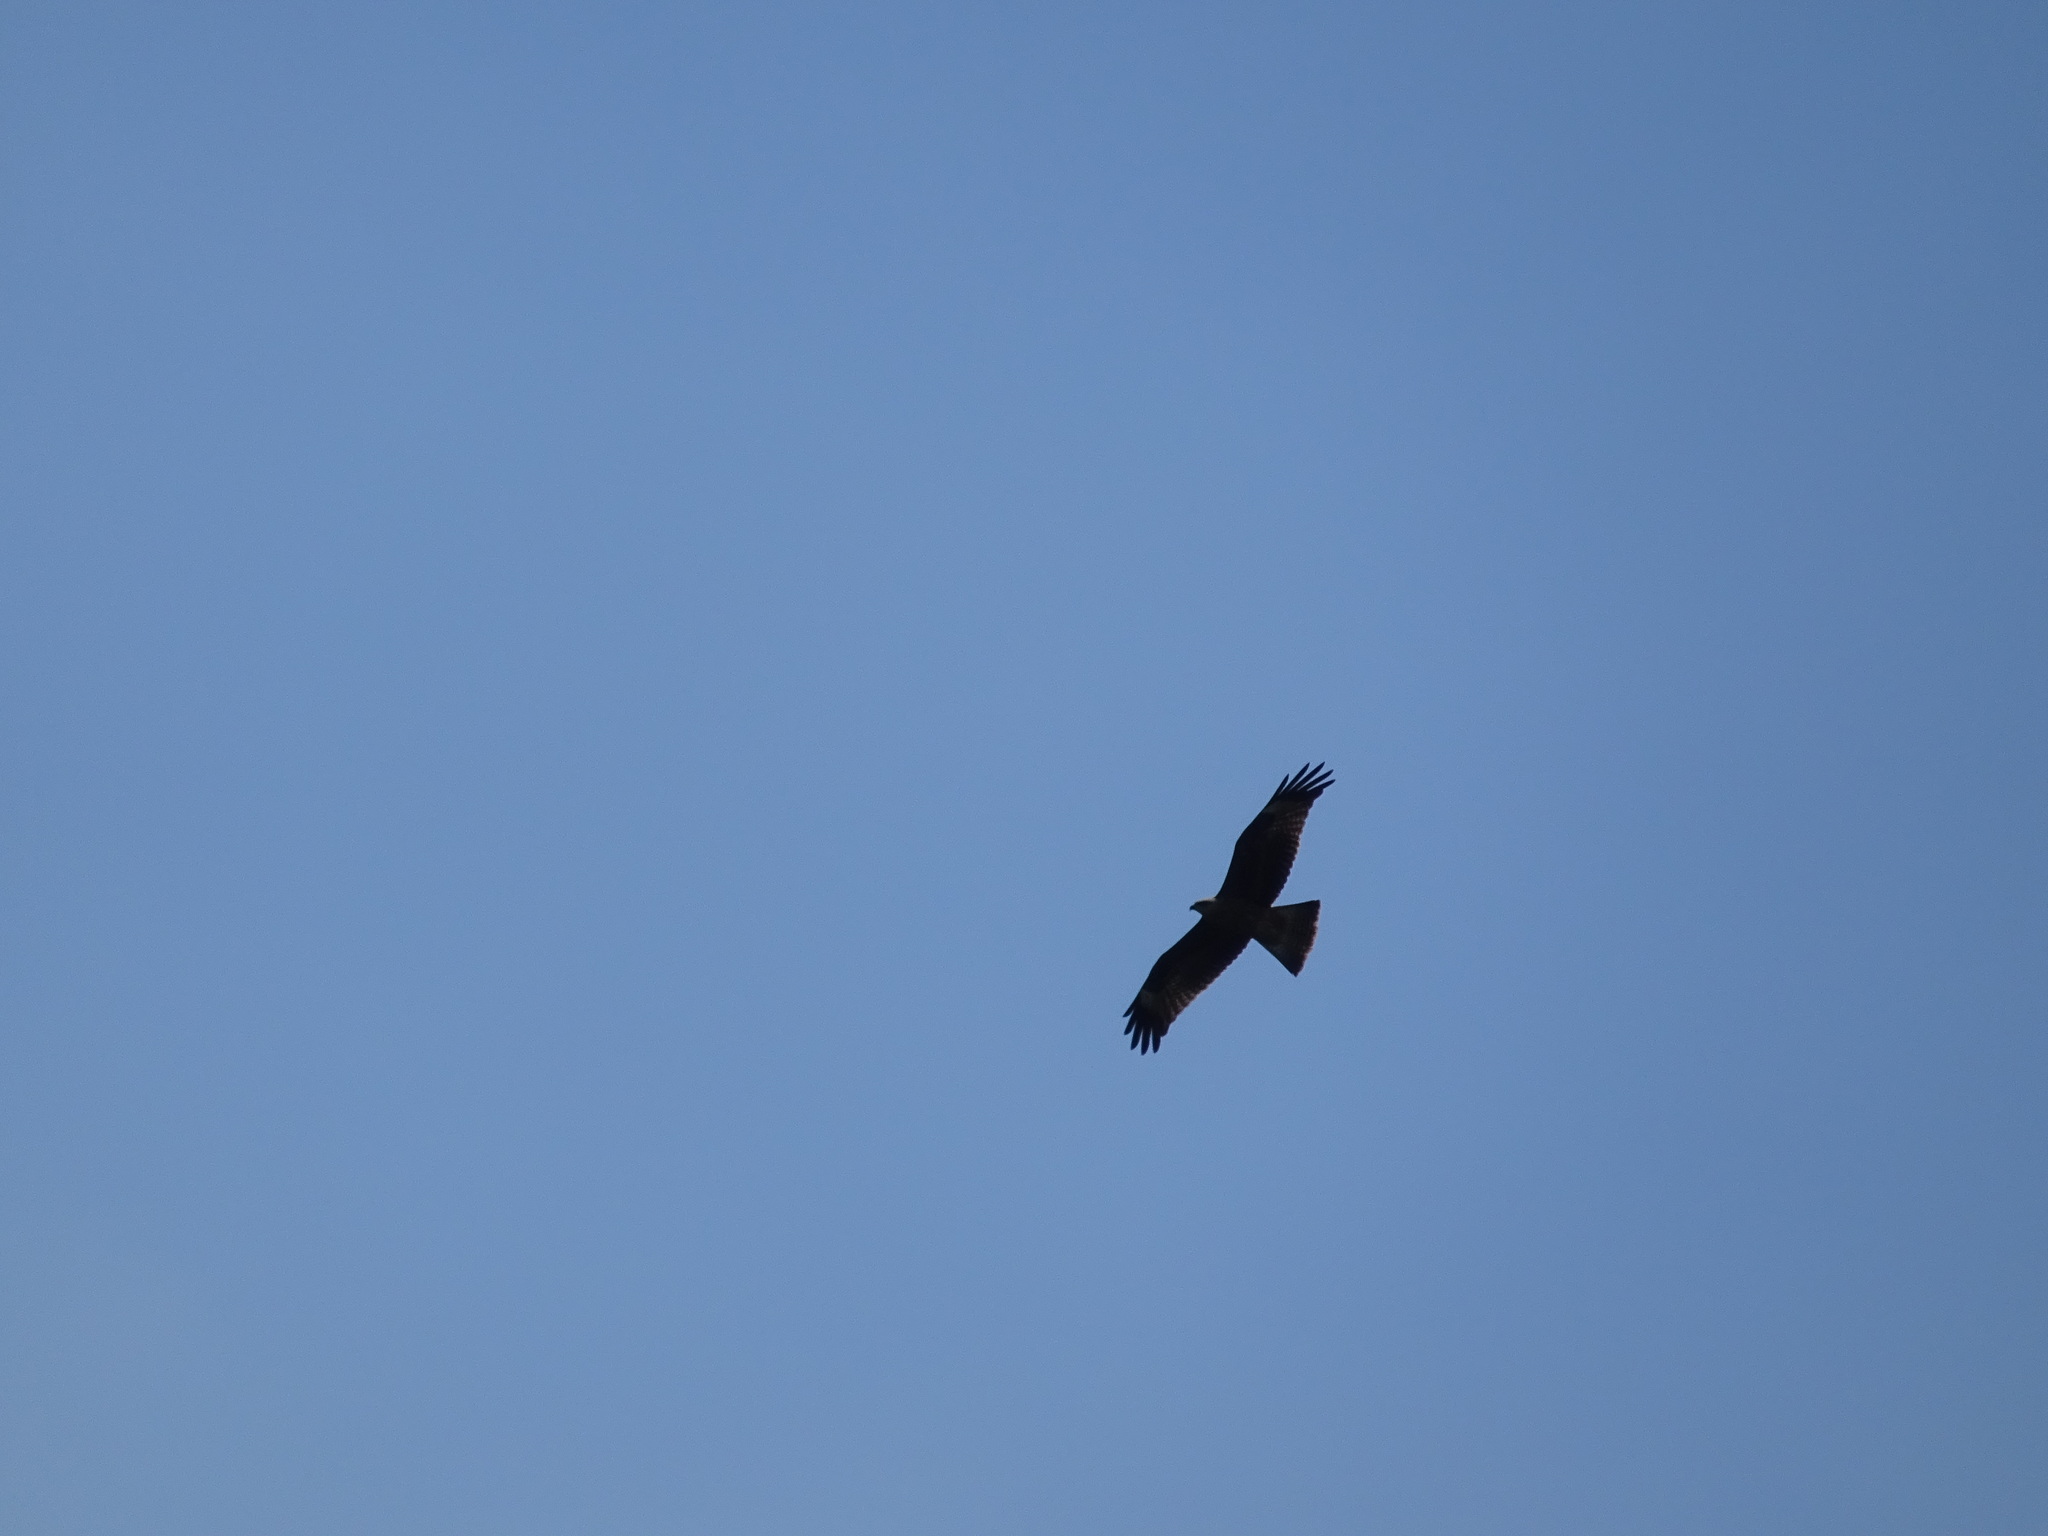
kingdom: Animalia
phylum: Chordata
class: Aves
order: Accipitriformes
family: Accipitridae
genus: Milvus
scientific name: Milvus migrans
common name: Black kite
